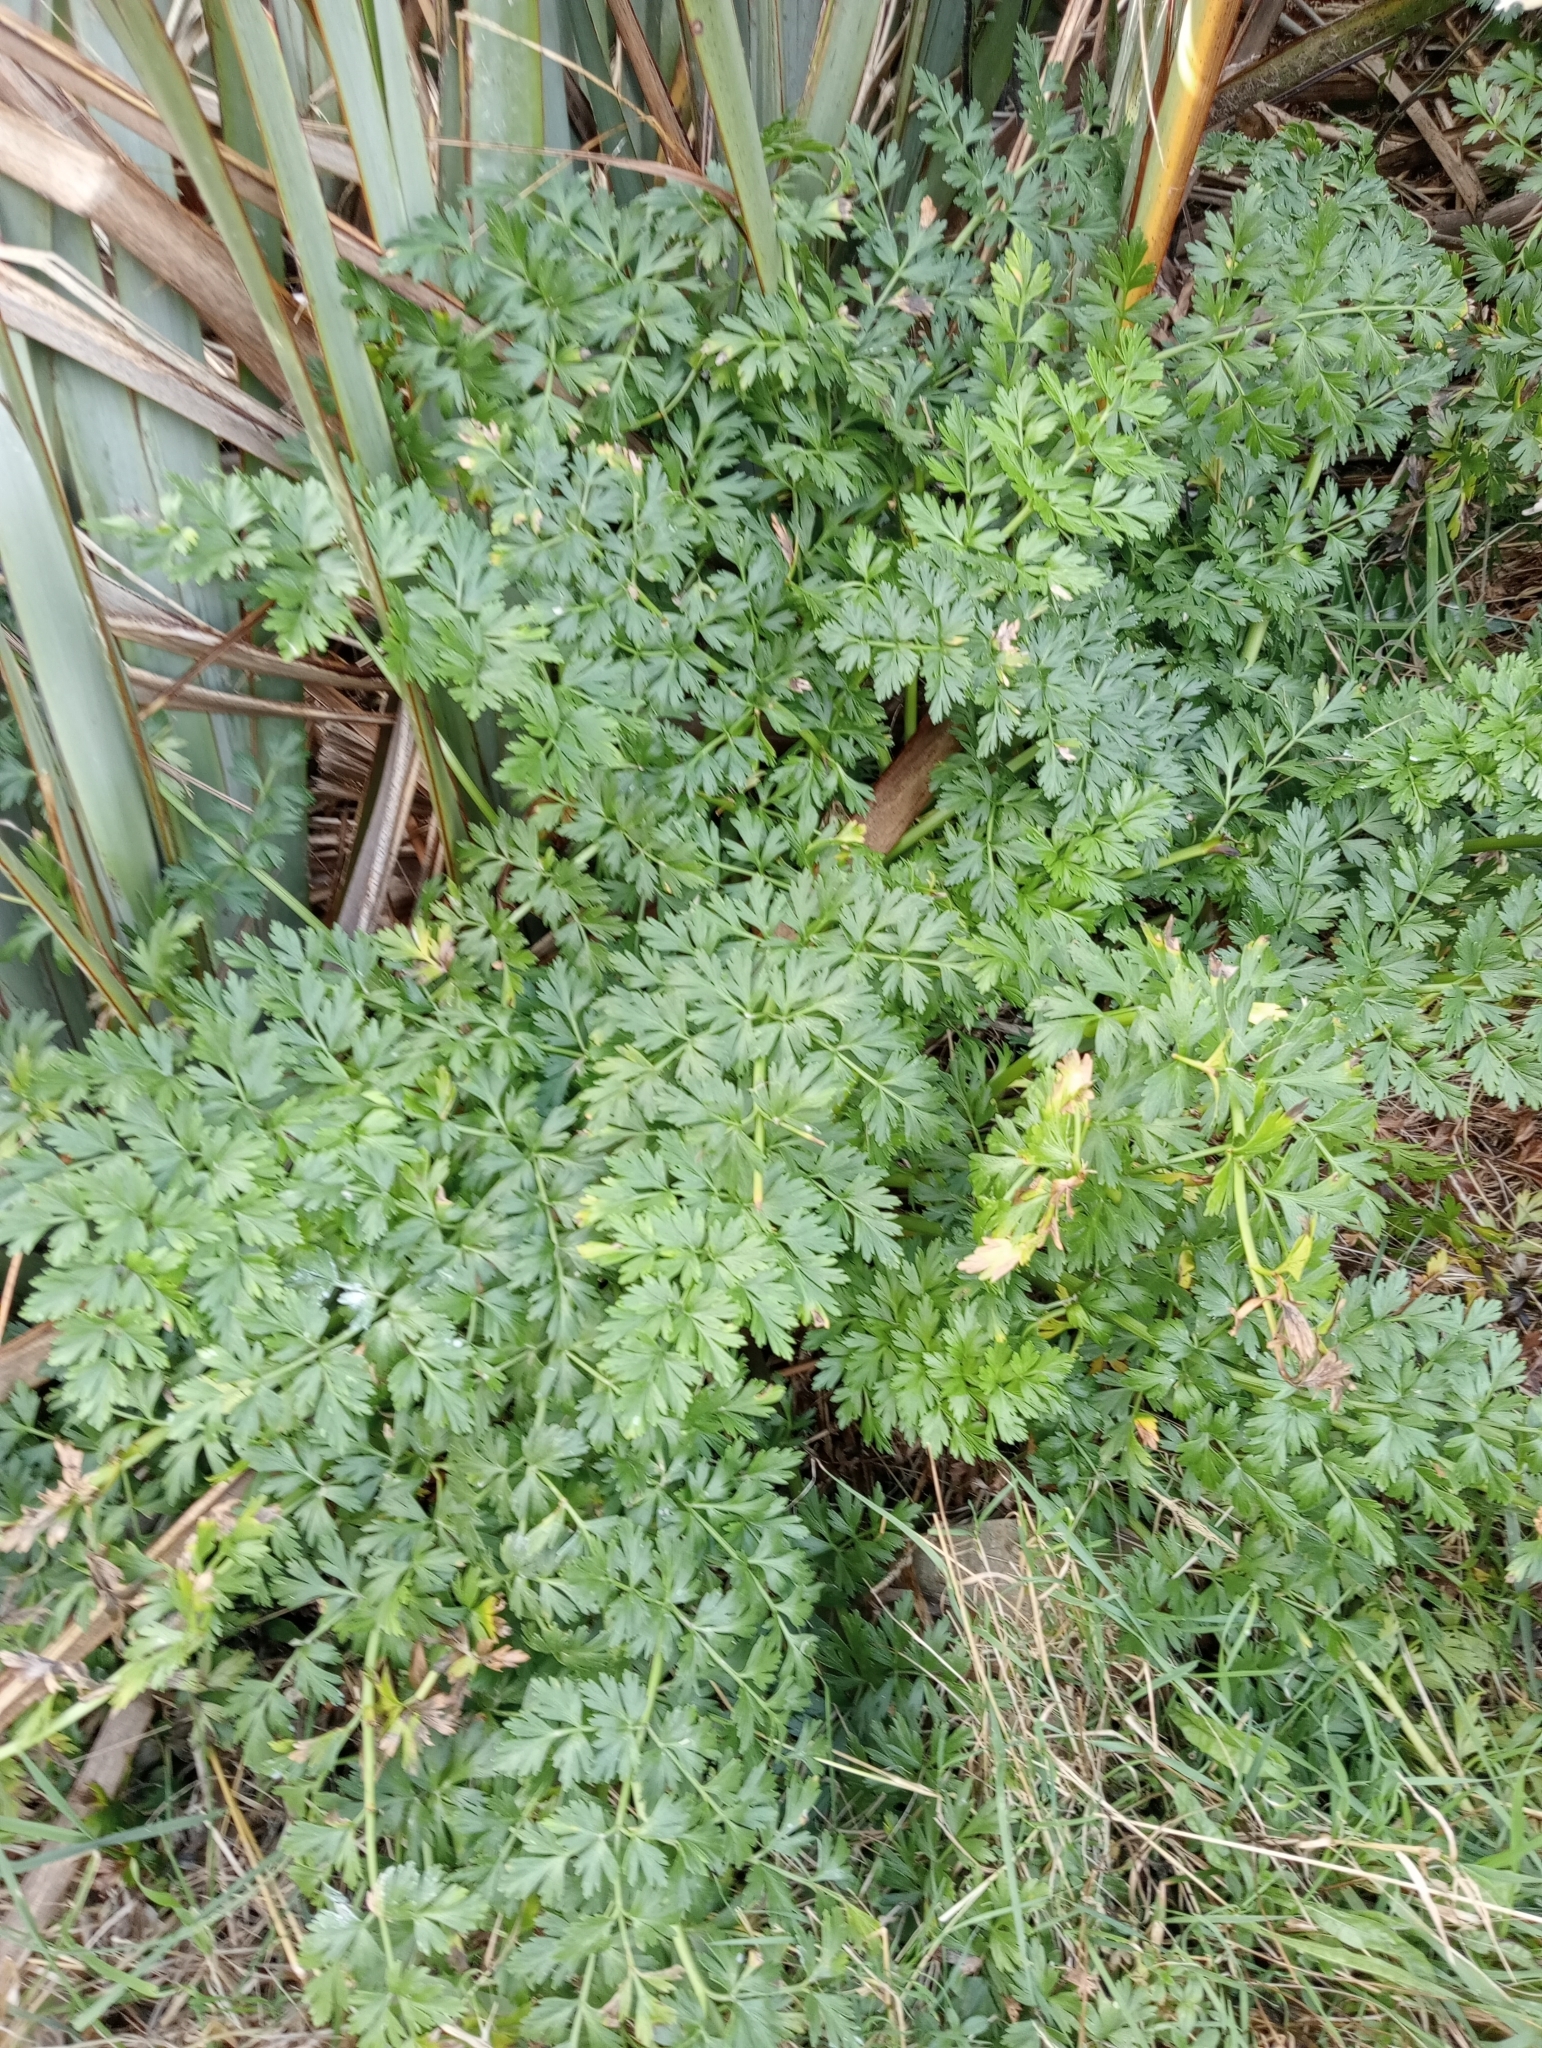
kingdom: Plantae
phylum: Tracheophyta
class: Magnoliopsida
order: Apiales
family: Apiaceae
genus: Anisotome
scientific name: Anisotome lyallii
